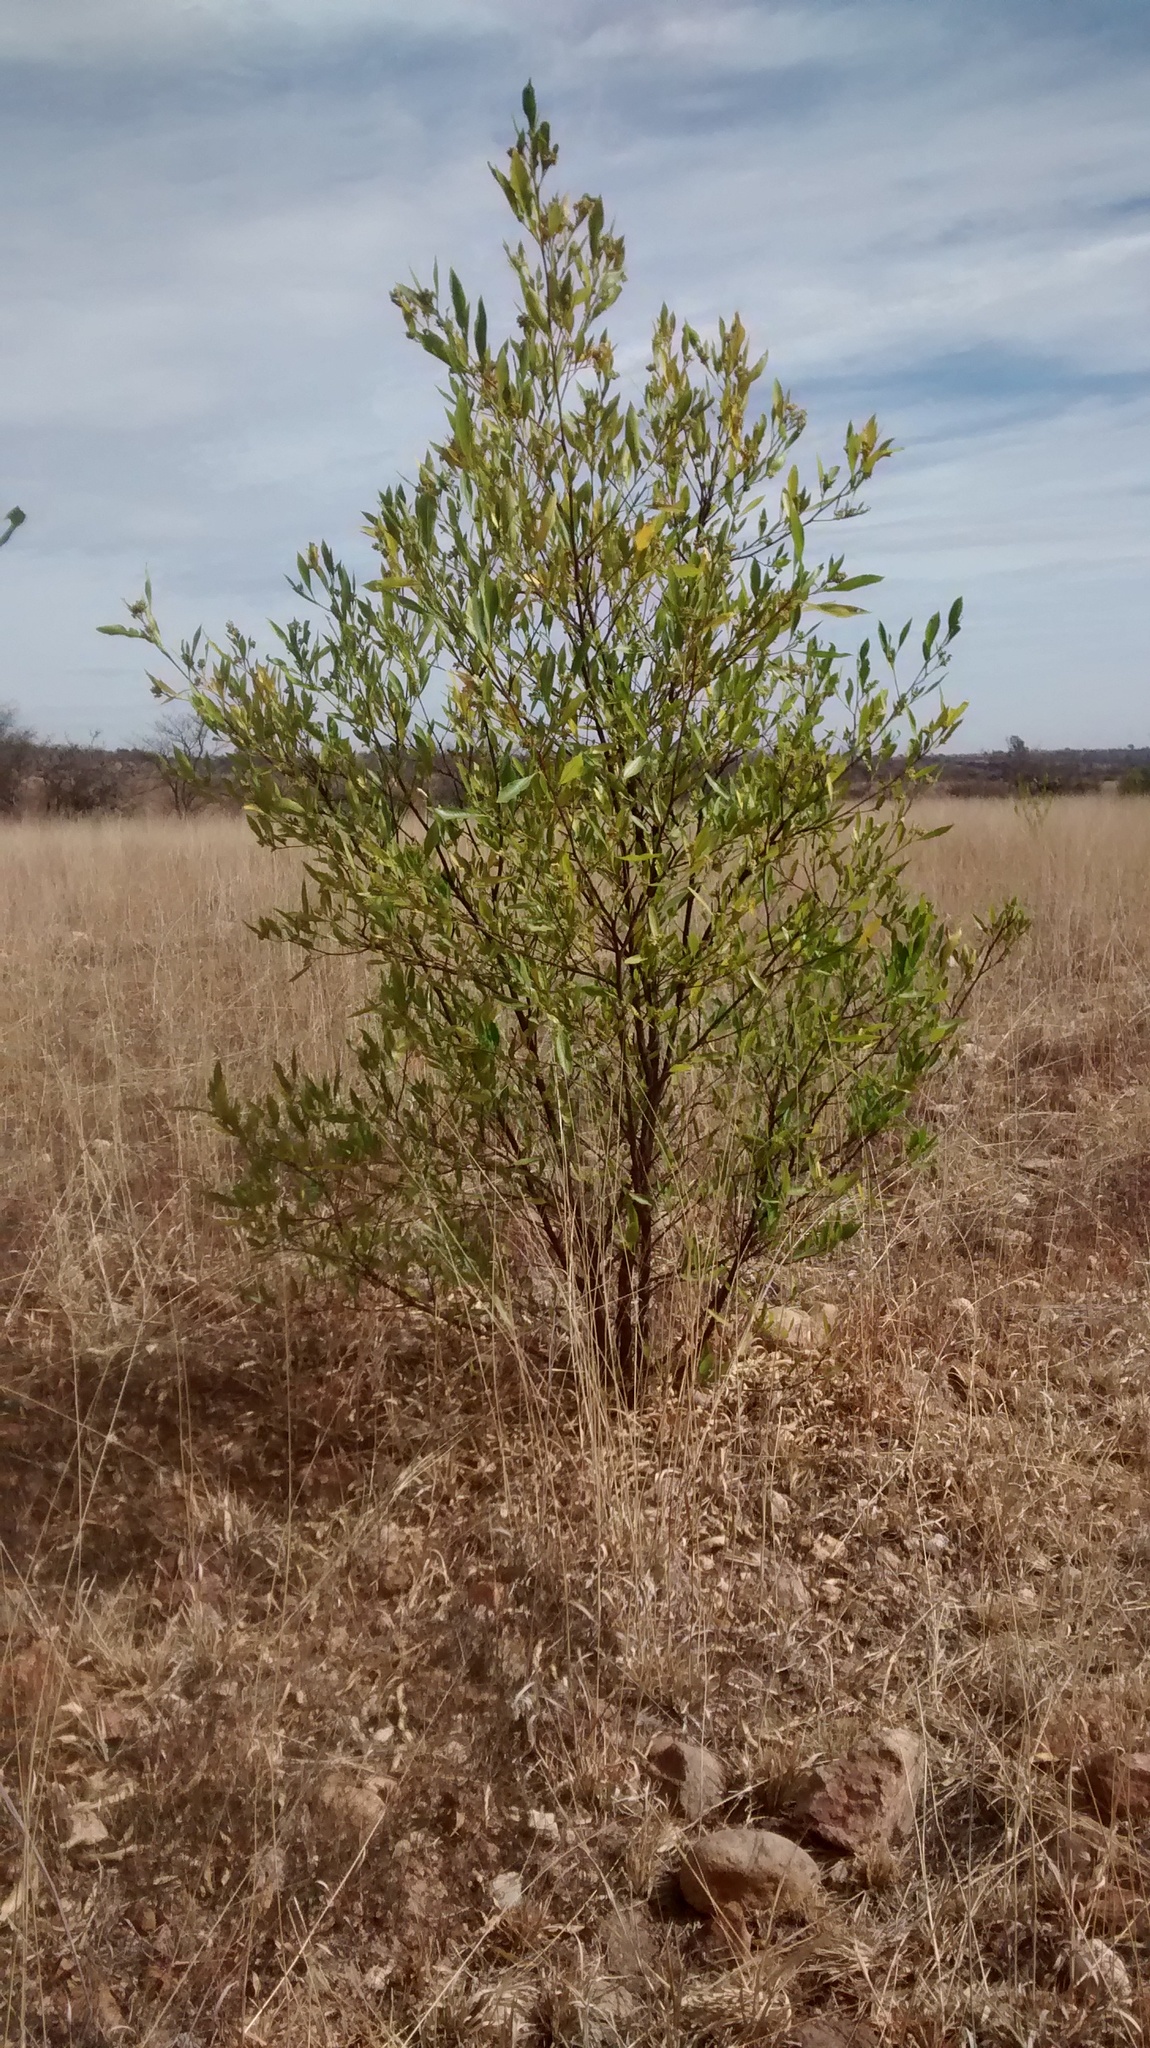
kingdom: Plantae
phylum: Tracheophyta
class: Magnoliopsida
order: Sapindales
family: Sapindaceae
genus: Dodonaea
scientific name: Dodonaea viscosa
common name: Hopbush
